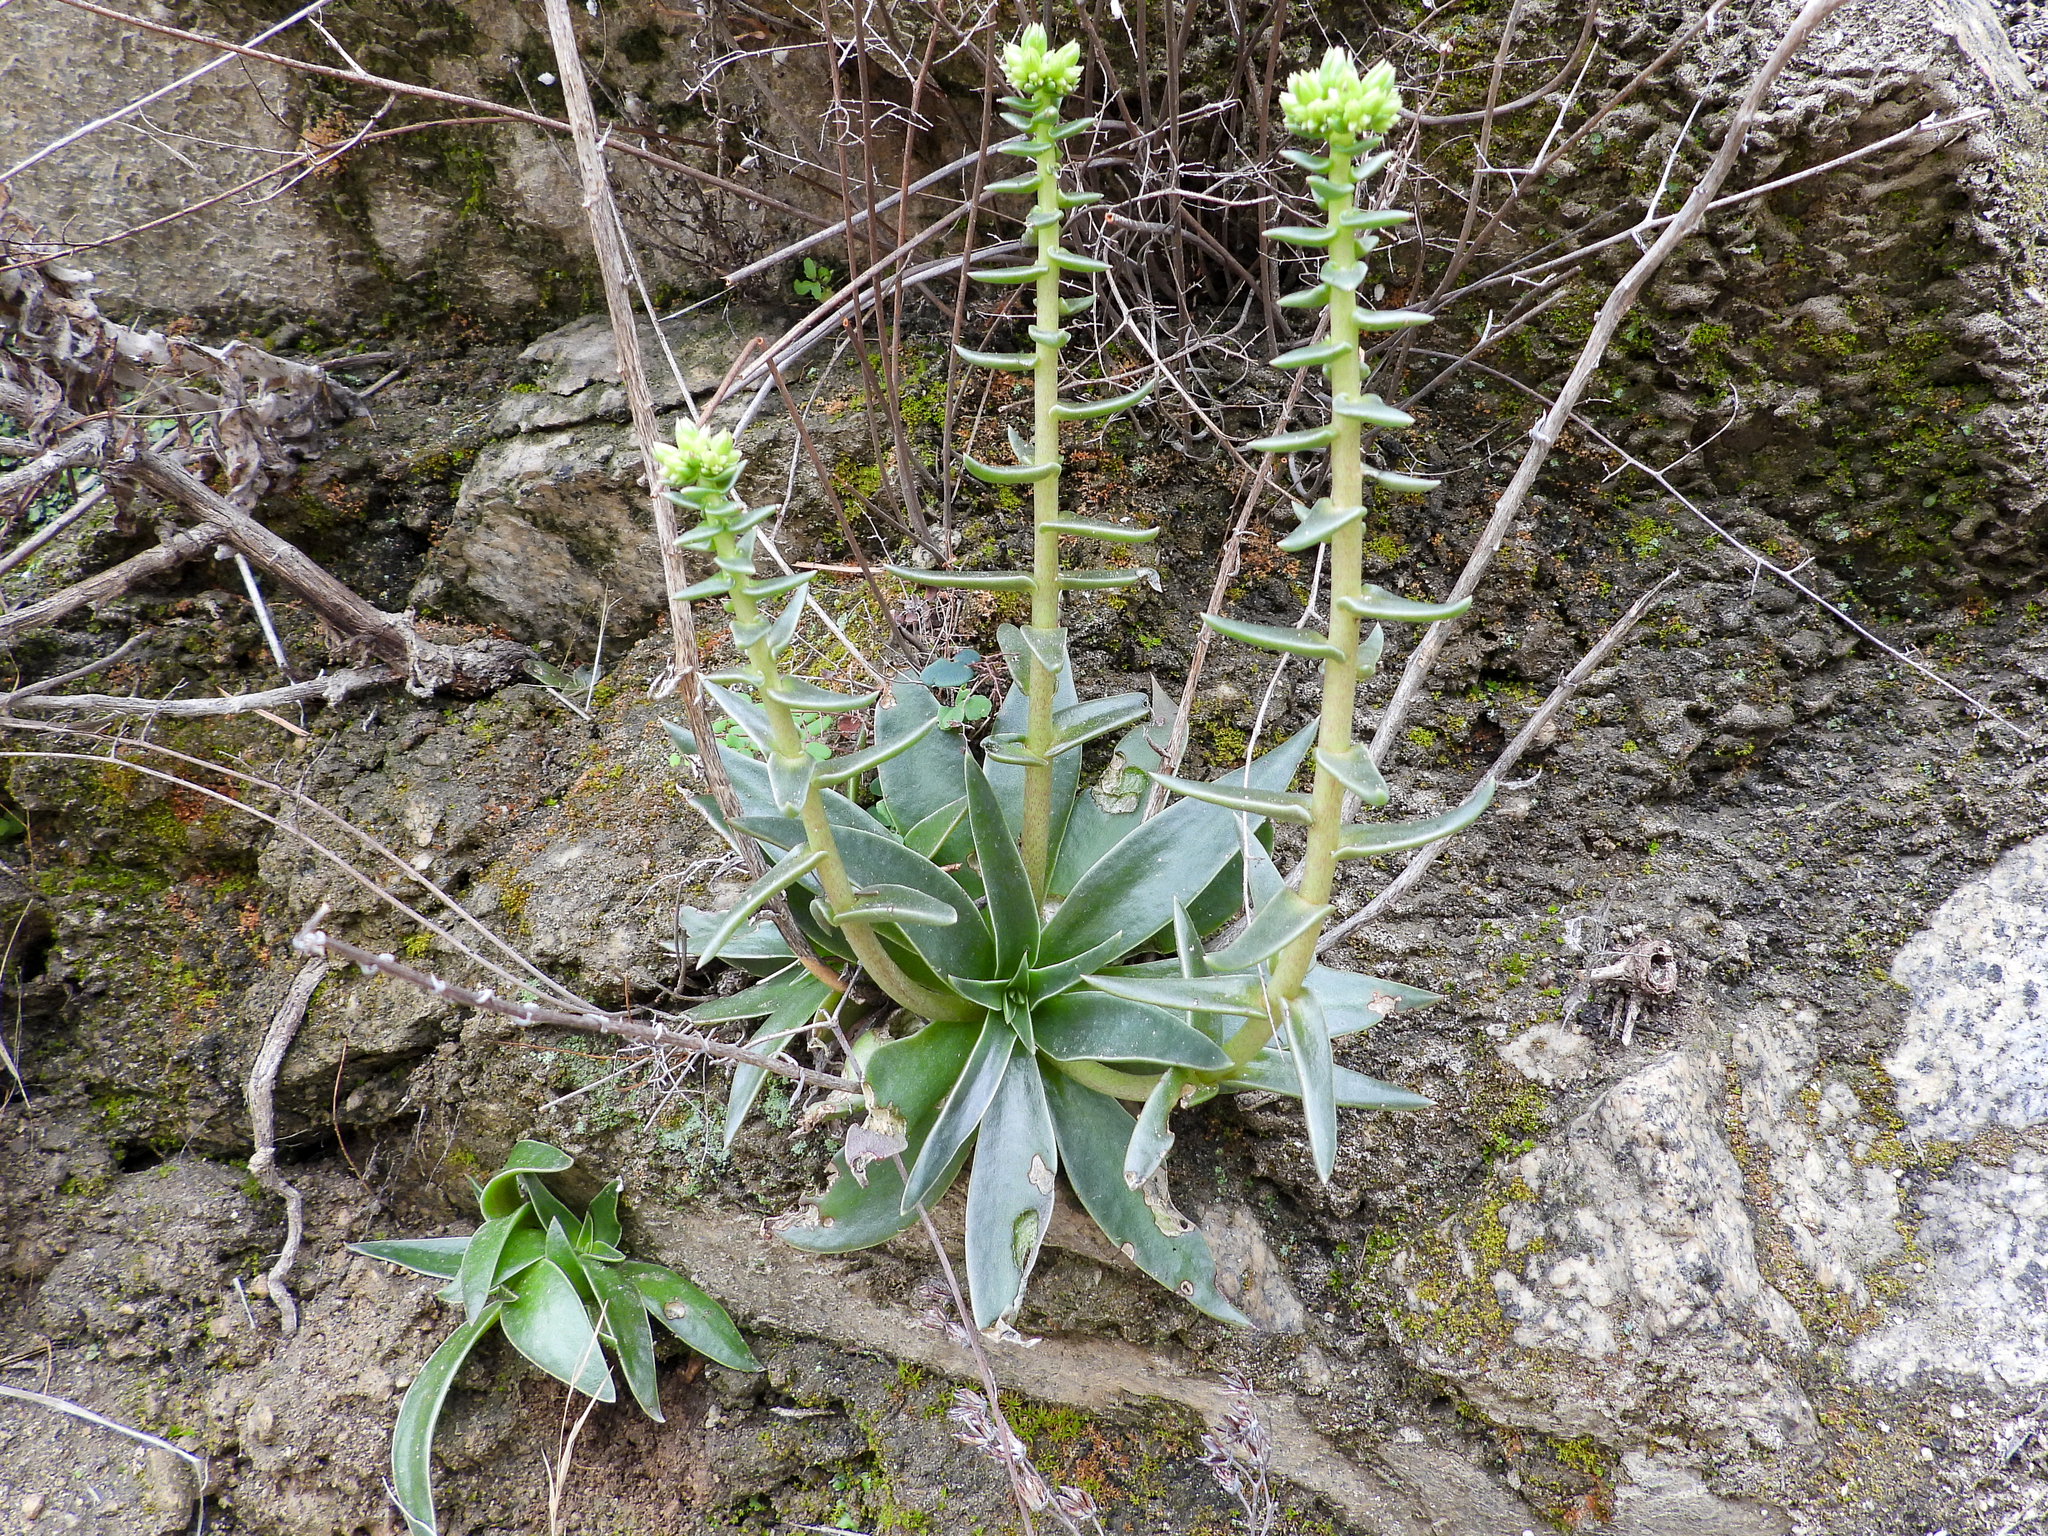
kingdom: Plantae
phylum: Tracheophyta
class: Magnoliopsida
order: Saxifragales
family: Crassulaceae
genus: Dudleya
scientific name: Dudleya lanceolata
